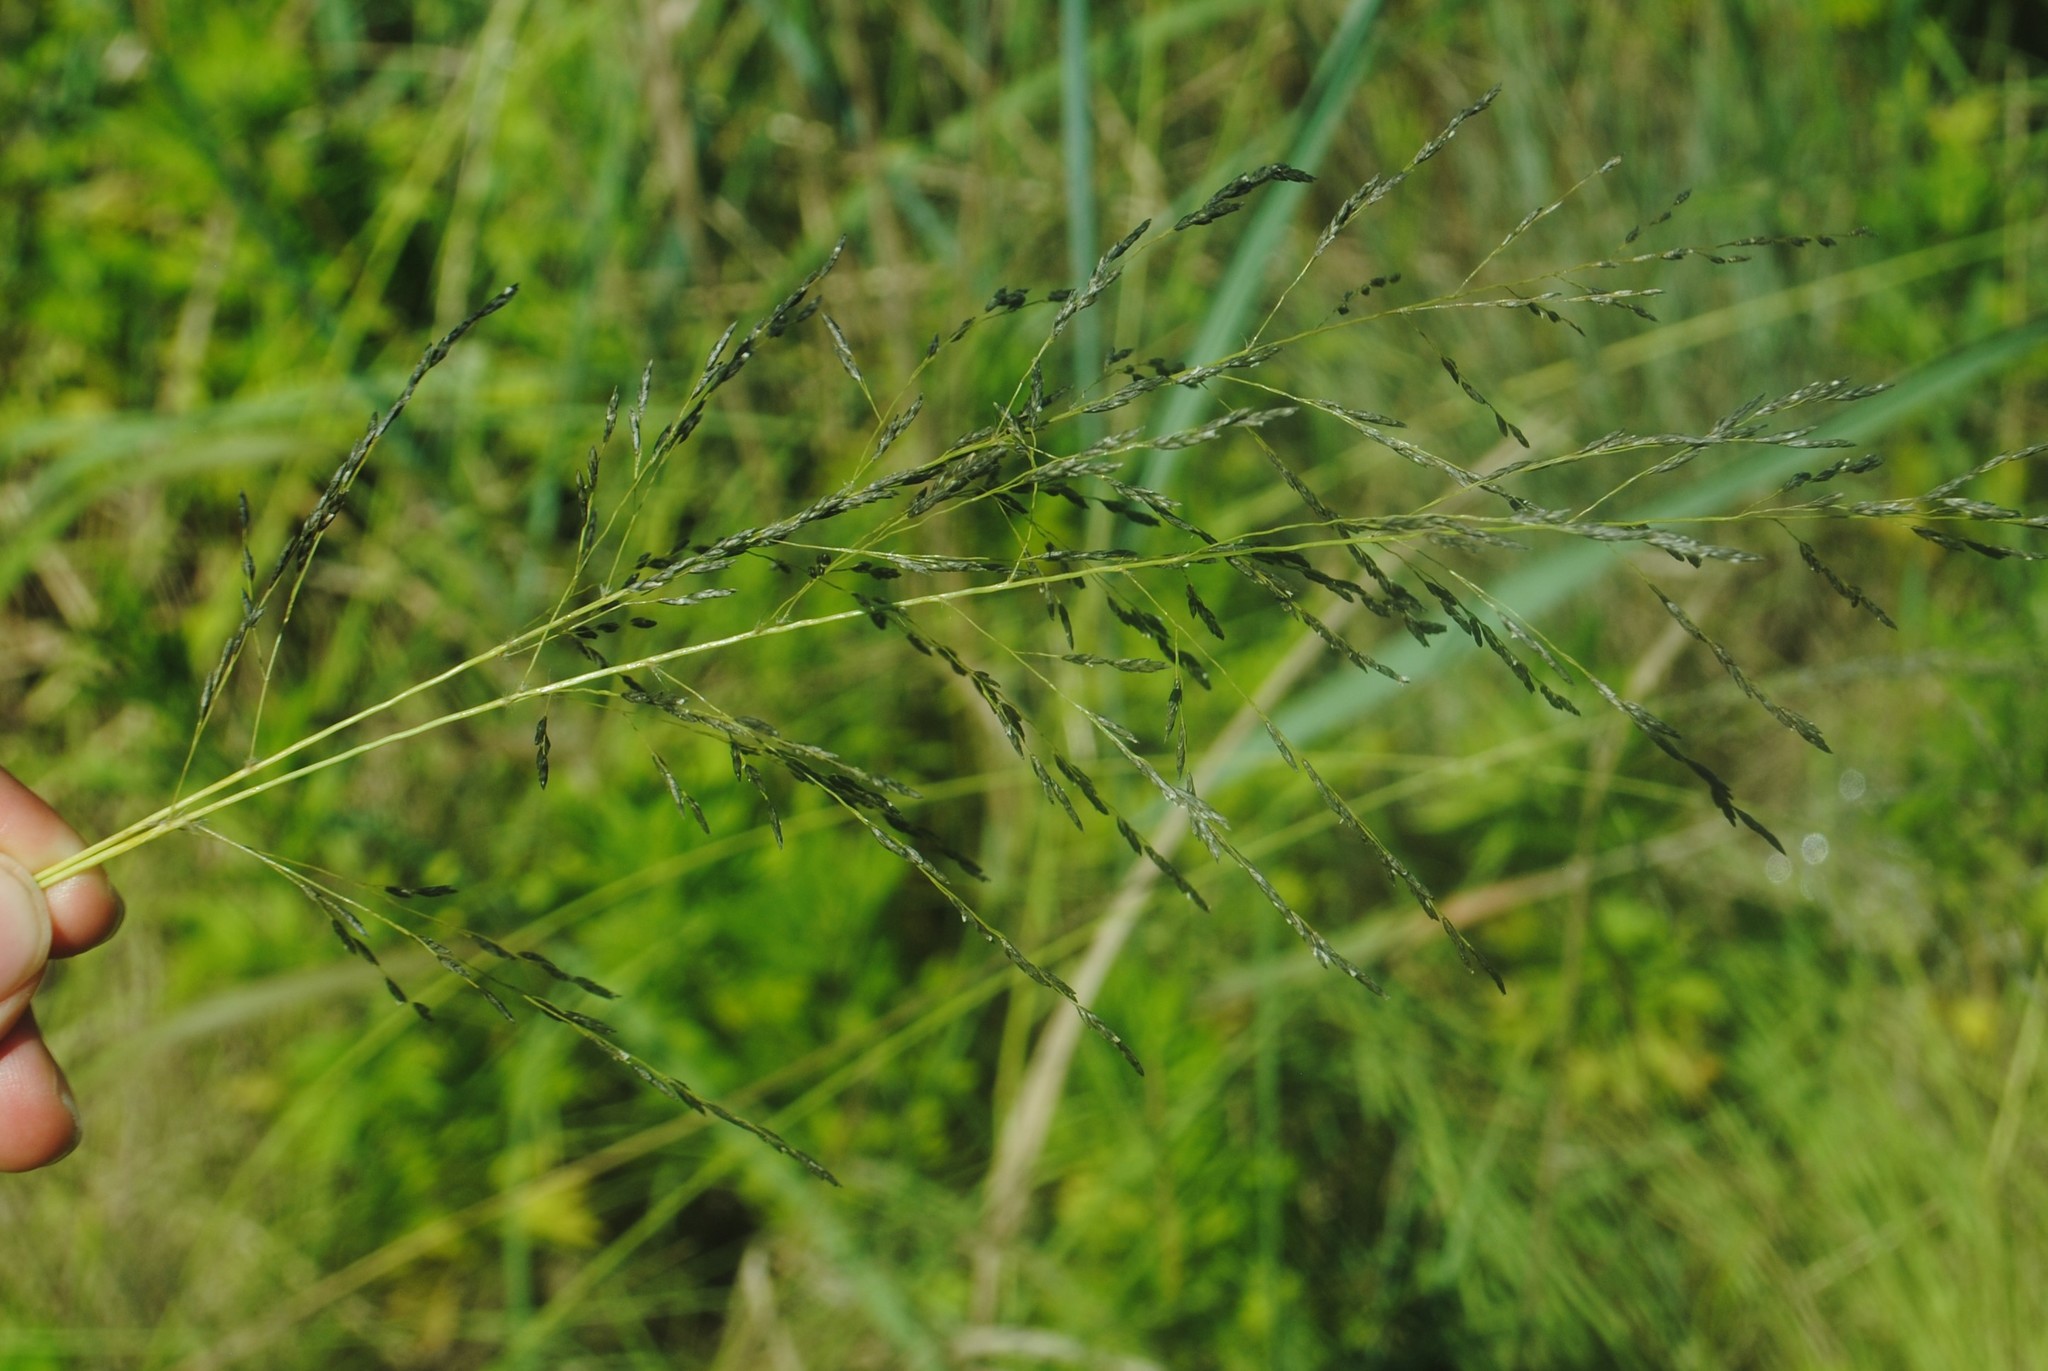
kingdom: Plantae
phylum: Tracheophyta
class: Liliopsida
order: Poales
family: Poaceae
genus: Eragrostis
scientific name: Eragrostis curvula
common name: African love-grass
